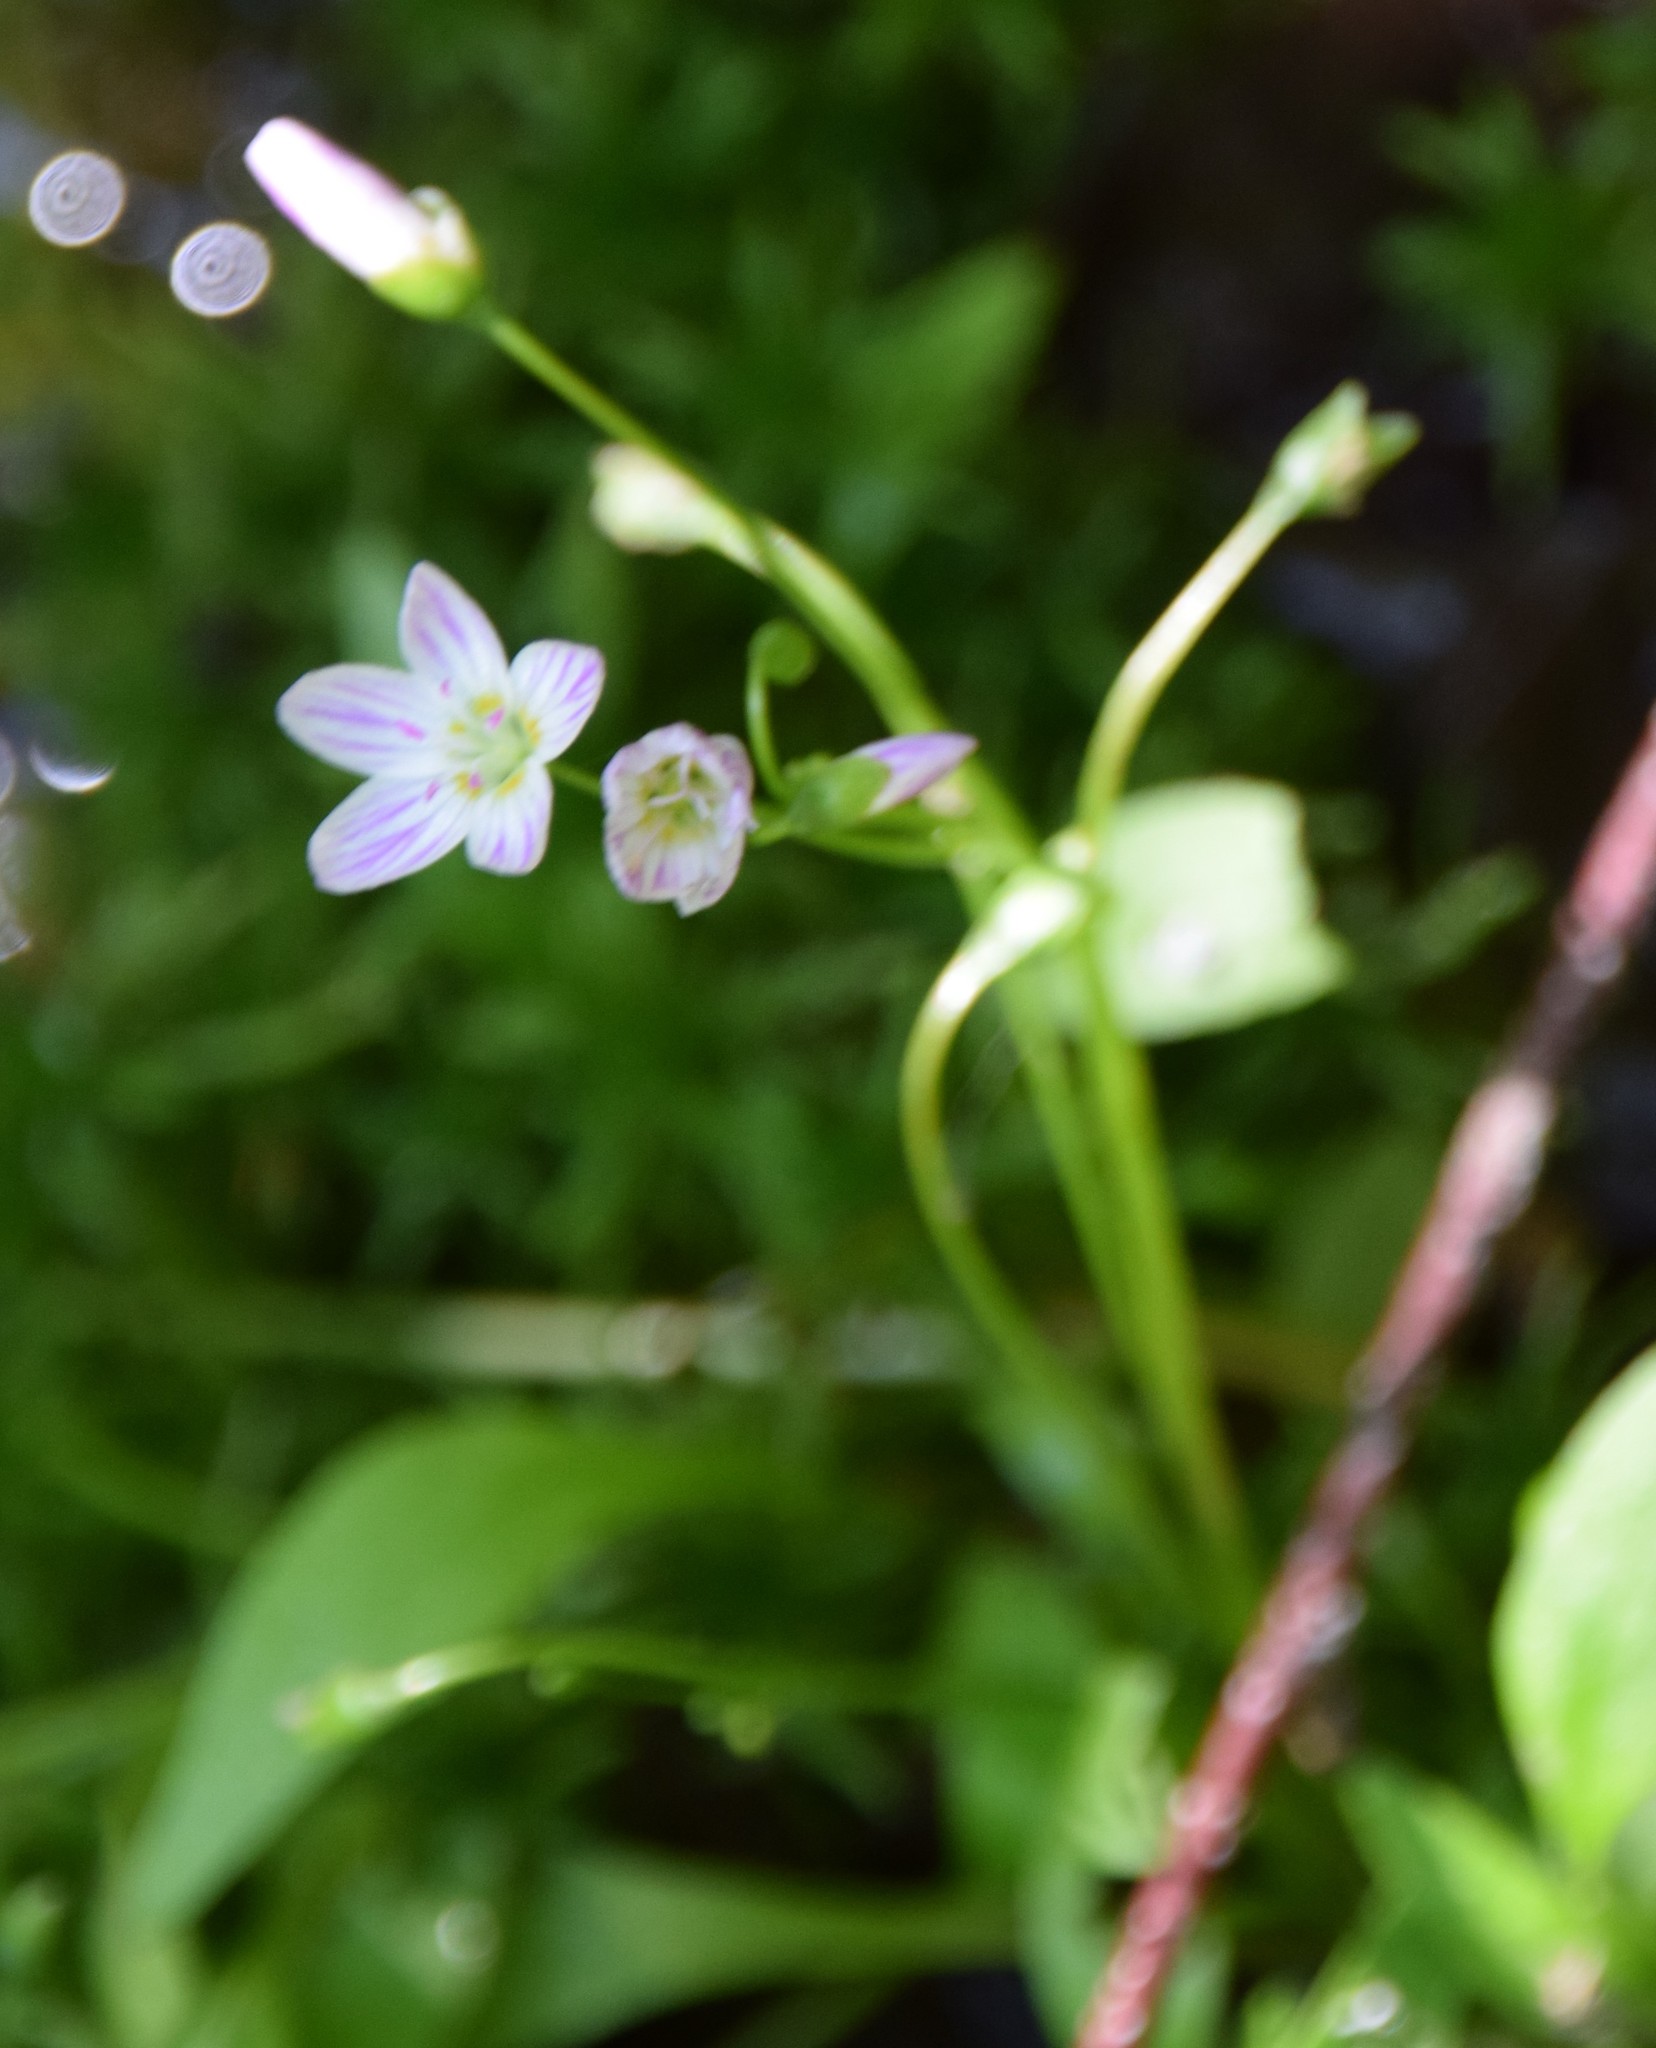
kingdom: Plantae
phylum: Tracheophyta
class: Magnoliopsida
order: Caryophyllales
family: Montiaceae
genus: Claytonia
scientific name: Claytonia caroliniana
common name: Carolina spring beauty
